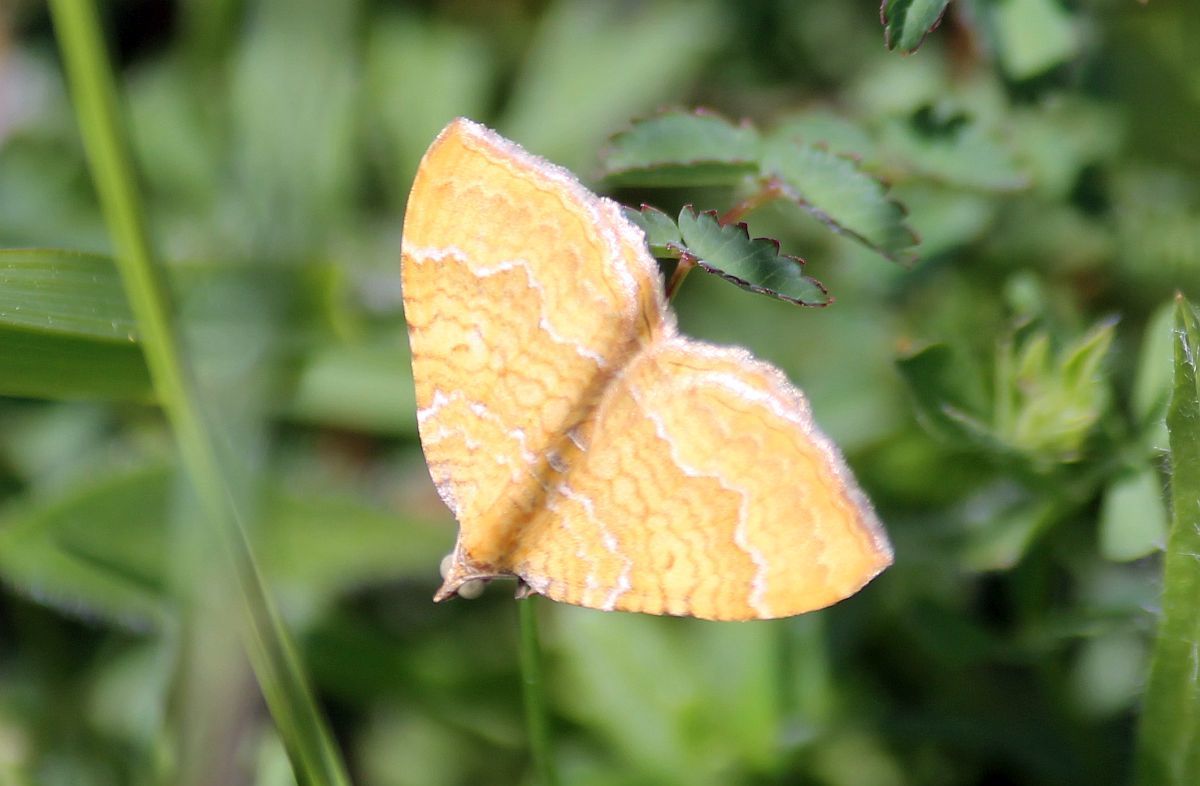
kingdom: Animalia
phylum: Arthropoda
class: Insecta
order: Lepidoptera
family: Geometridae
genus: Camptogramma
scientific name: Camptogramma bilineata
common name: Yellow shell
